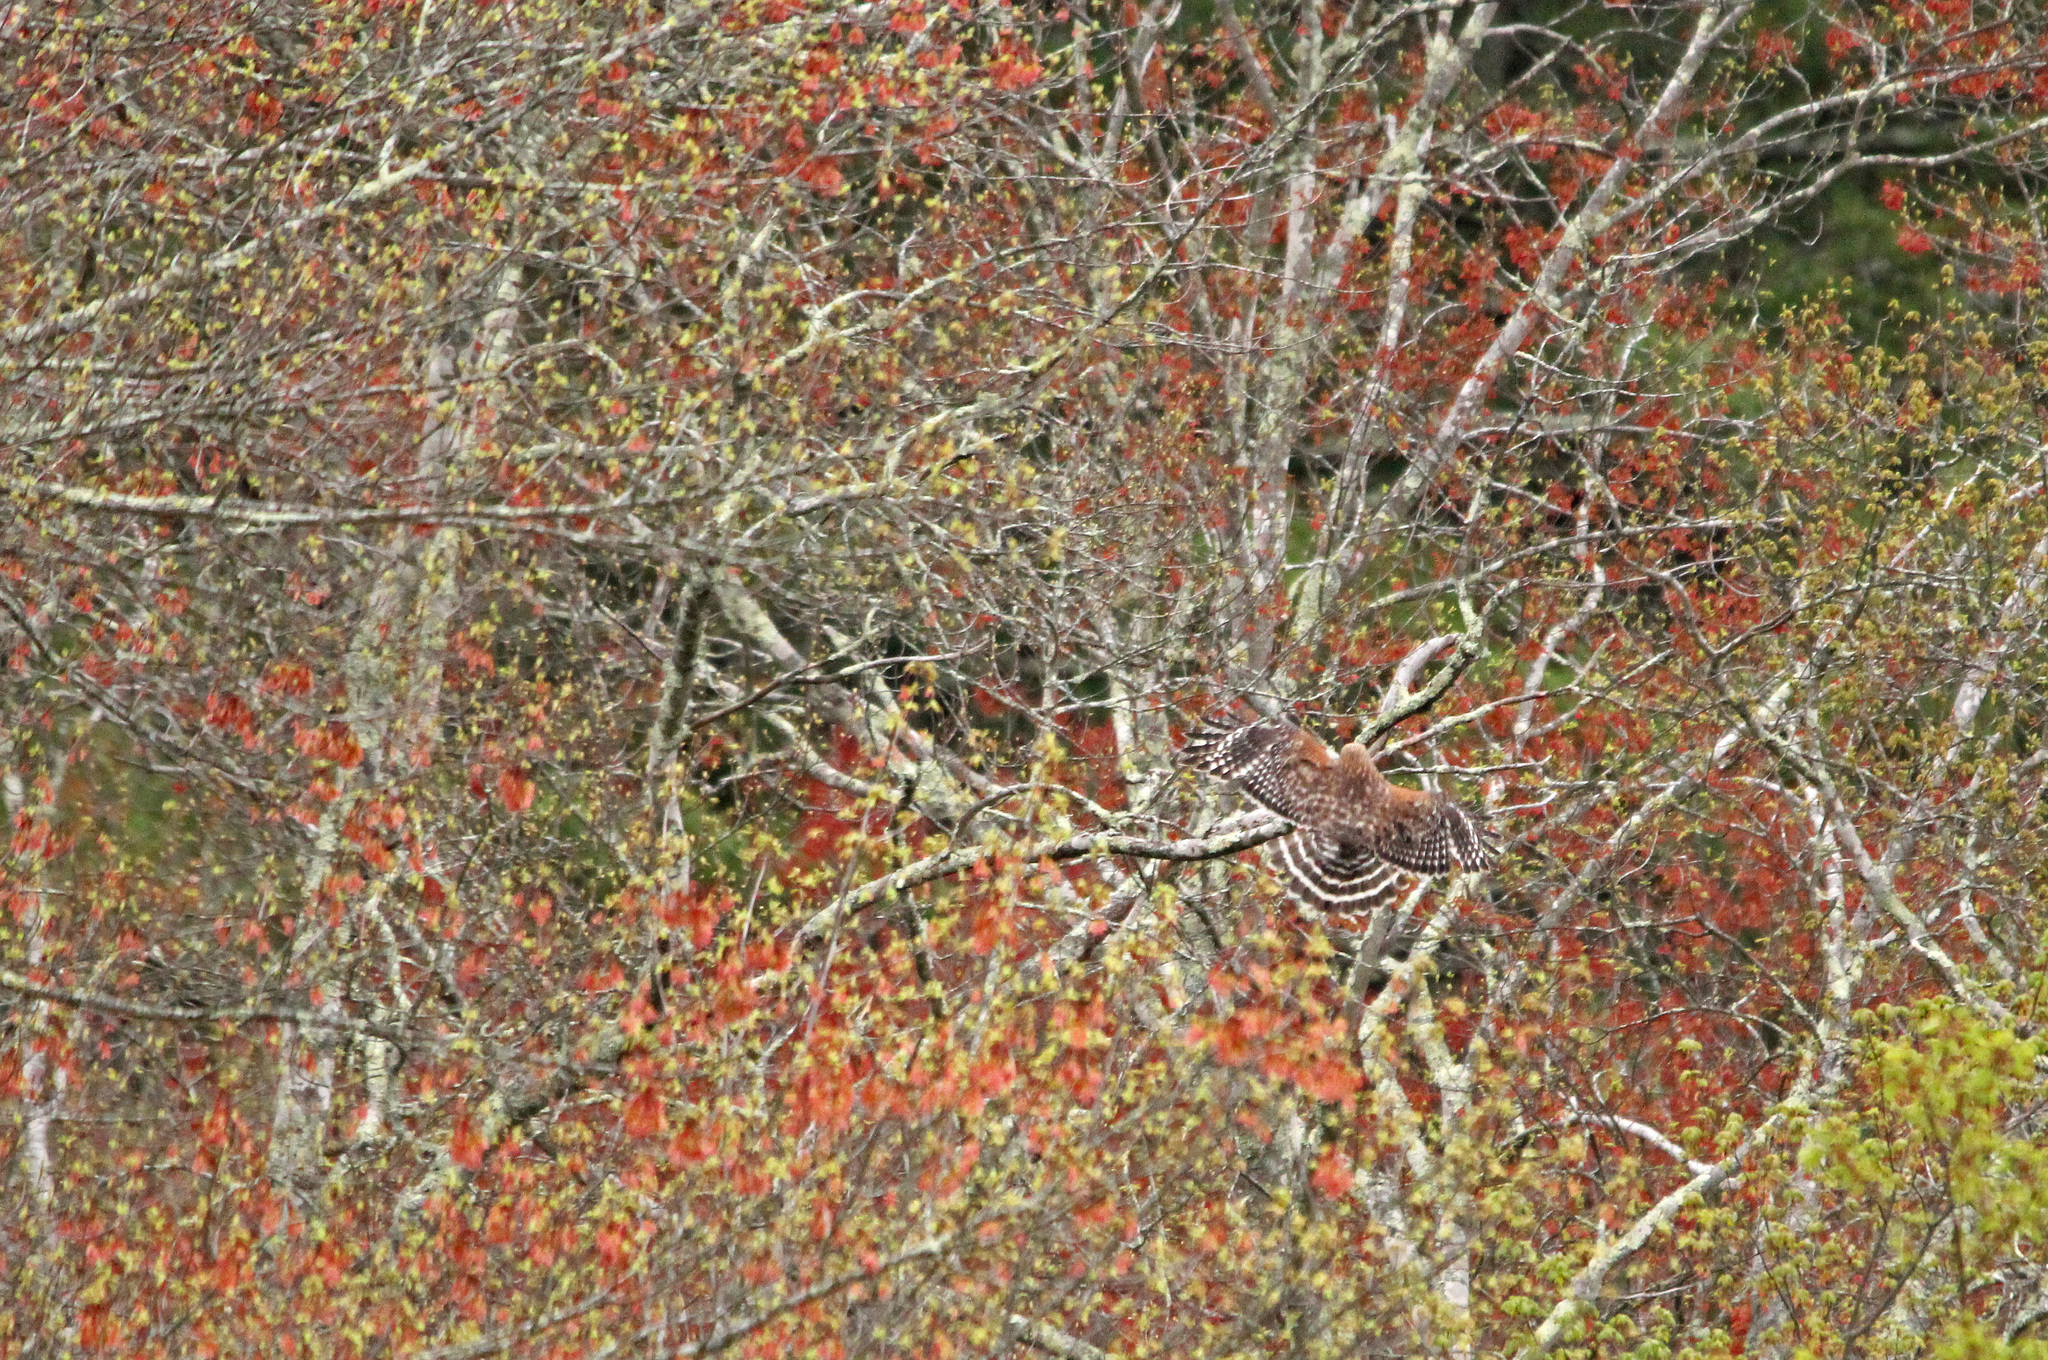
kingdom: Animalia
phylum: Chordata
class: Aves
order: Accipitriformes
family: Accipitridae
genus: Buteo
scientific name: Buteo lineatus
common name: Red-shouldered hawk
